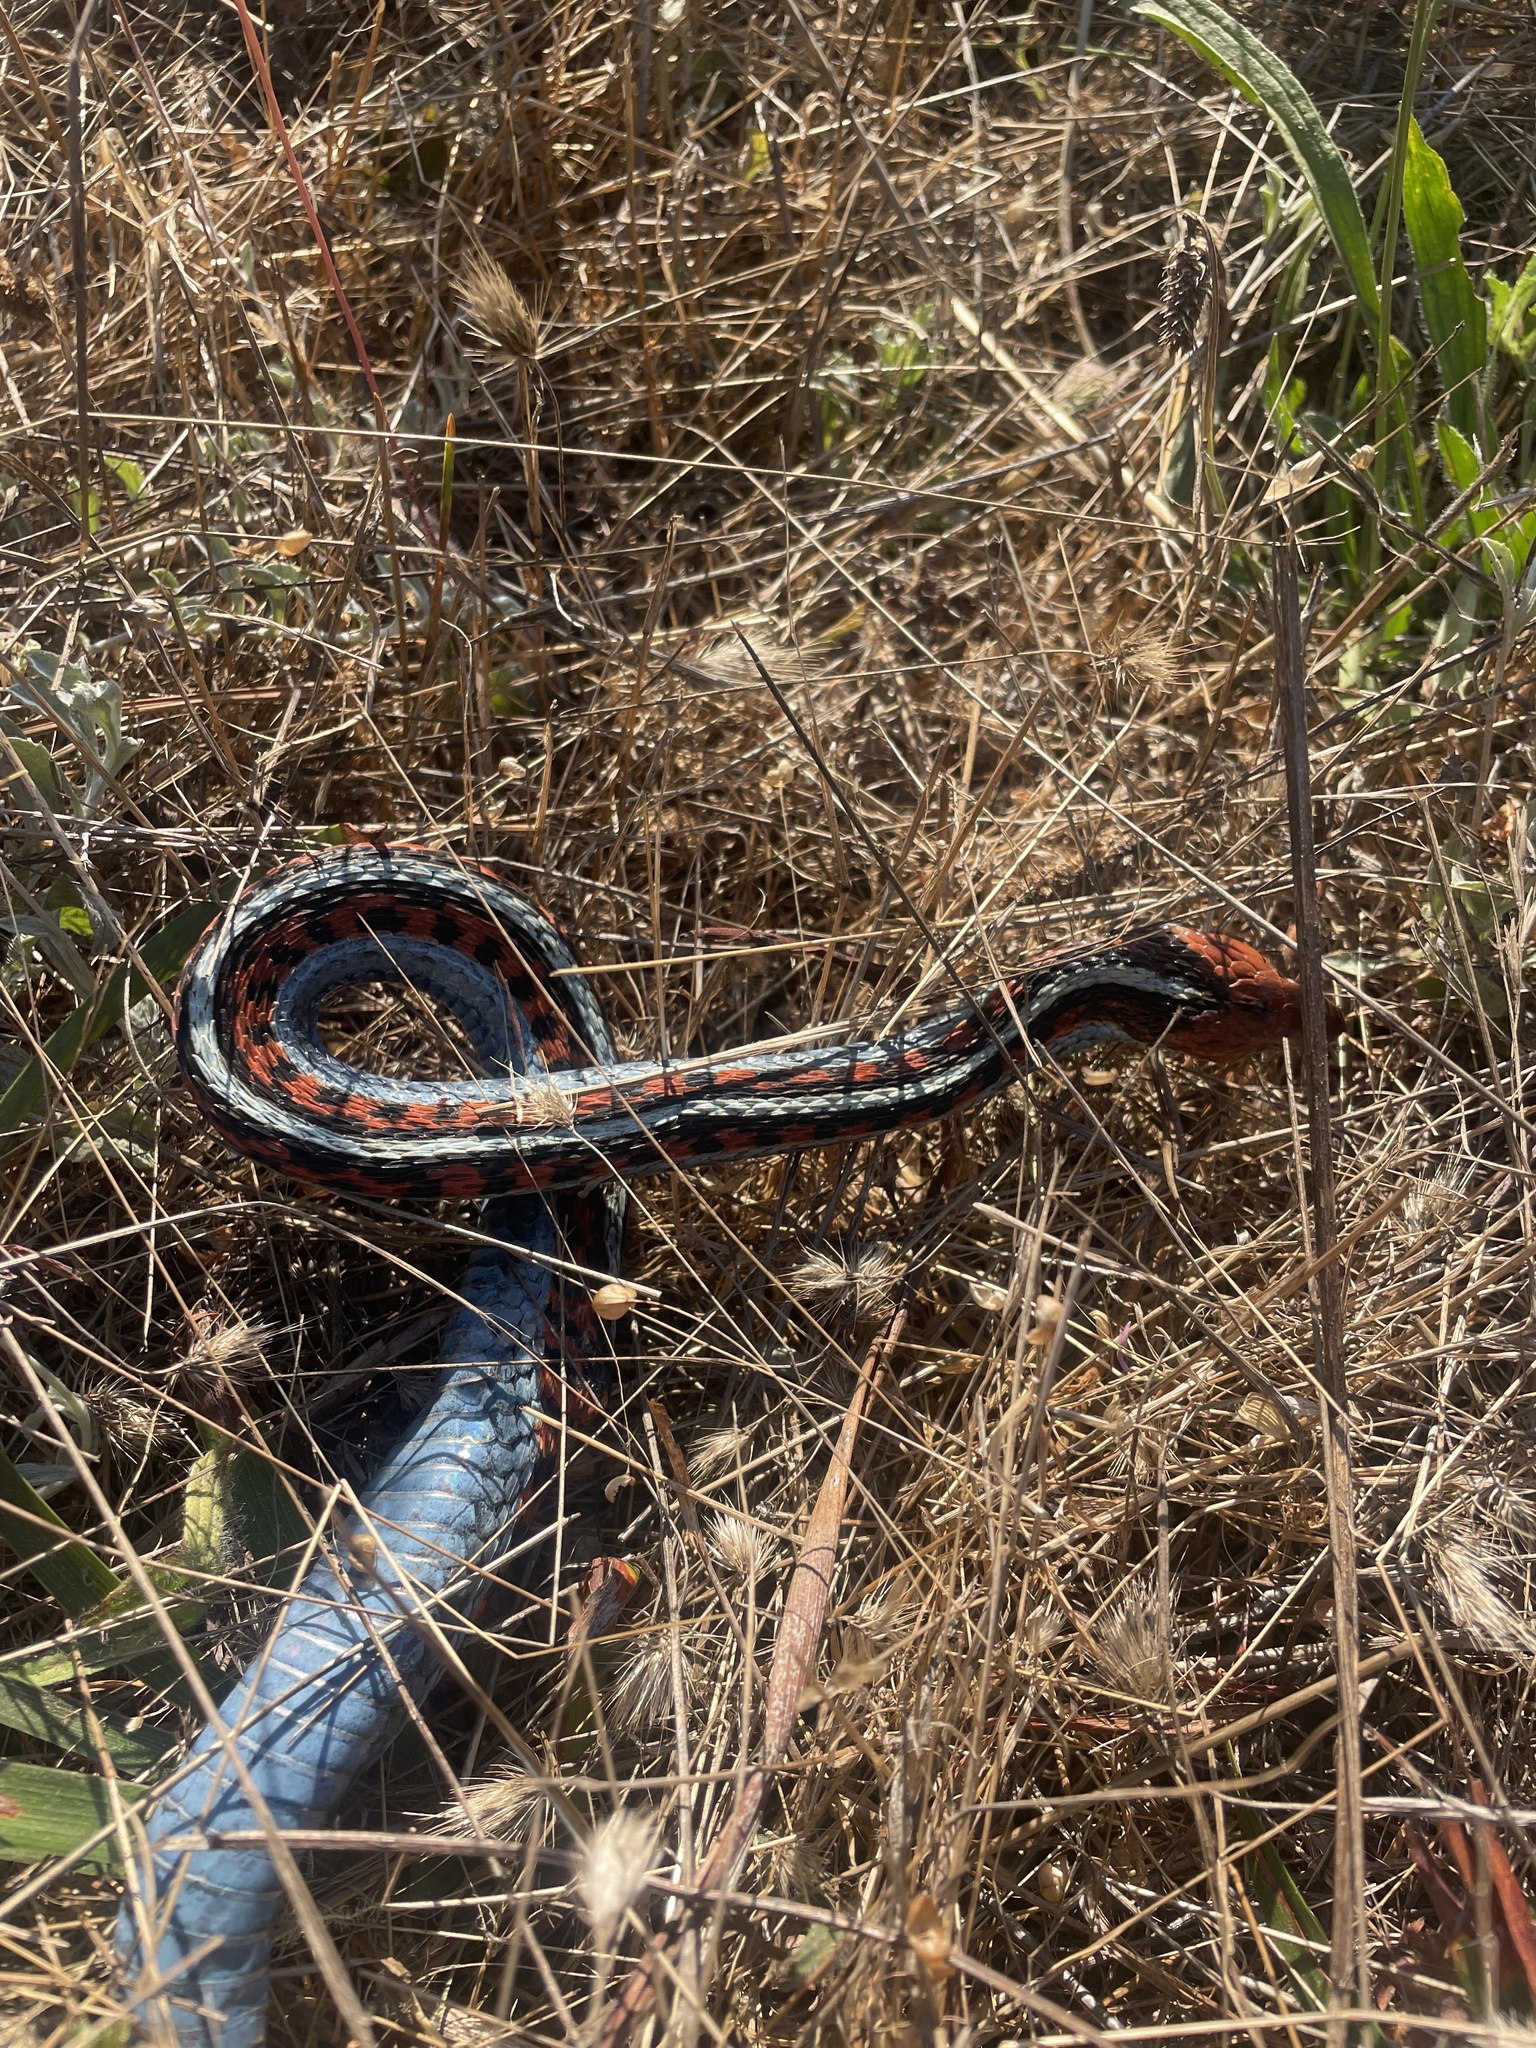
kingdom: Animalia
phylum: Chordata
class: Squamata
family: Colubridae
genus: Thamnophis
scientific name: Thamnophis sirtalis
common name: Common garter snake
